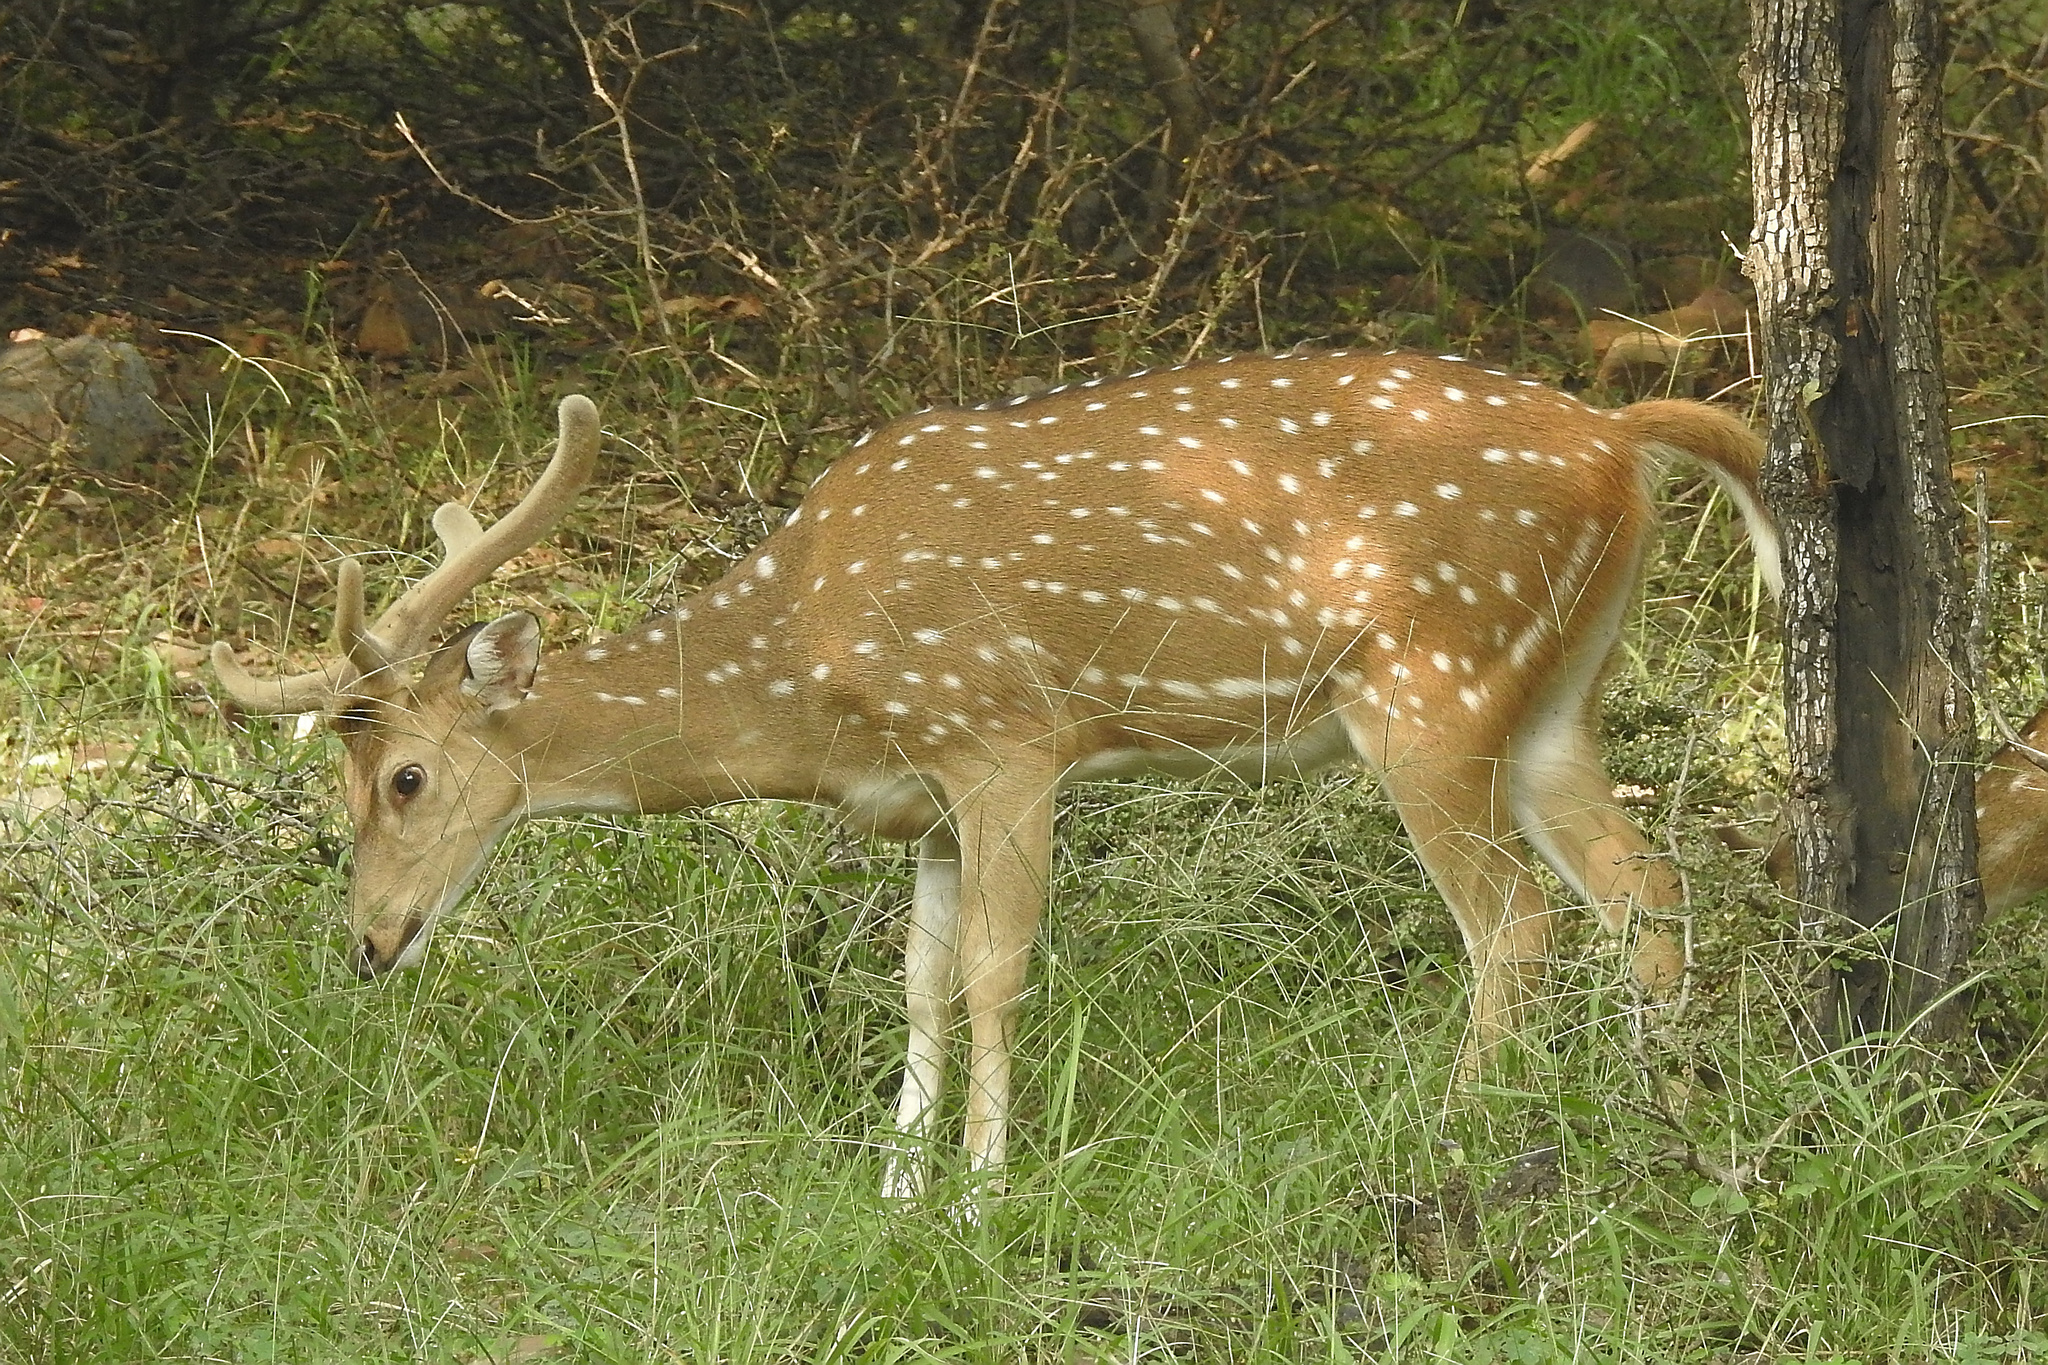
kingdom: Animalia
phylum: Chordata
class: Mammalia
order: Artiodactyla
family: Cervidae
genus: Axis
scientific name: Axis axis
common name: Chital
